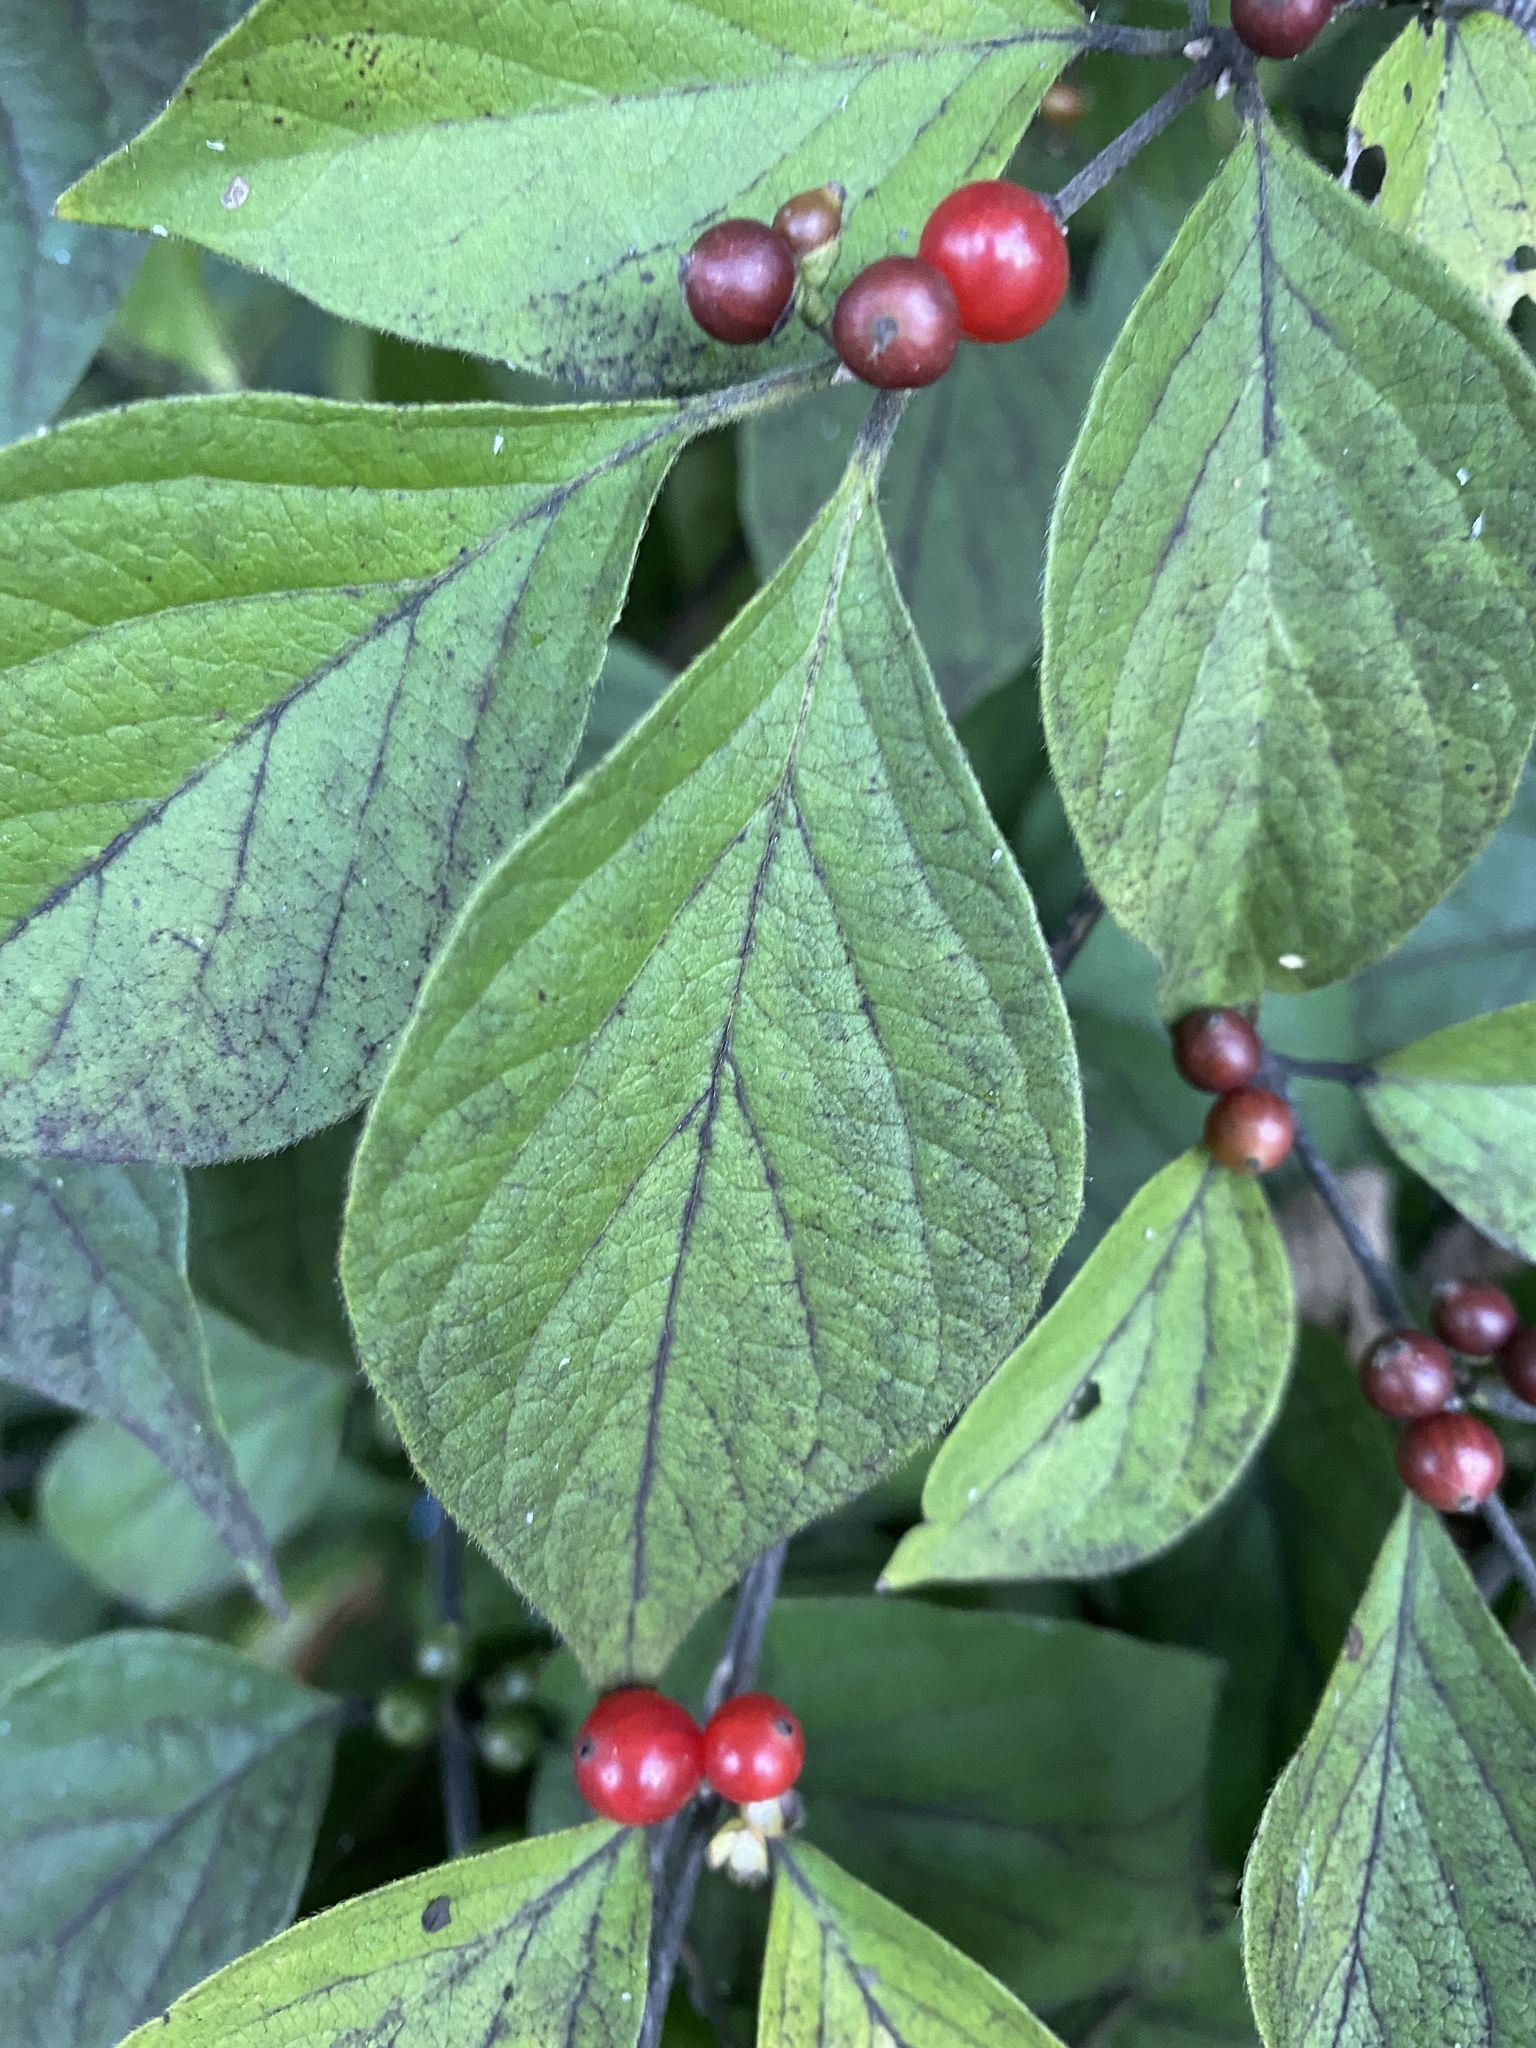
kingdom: Plantae
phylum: Tracheophyta
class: Magnoliopsida
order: Dipsacales
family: Caprifoliaceae
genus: Lonicera
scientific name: Lonicera maackii
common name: Amur honeysuckle
